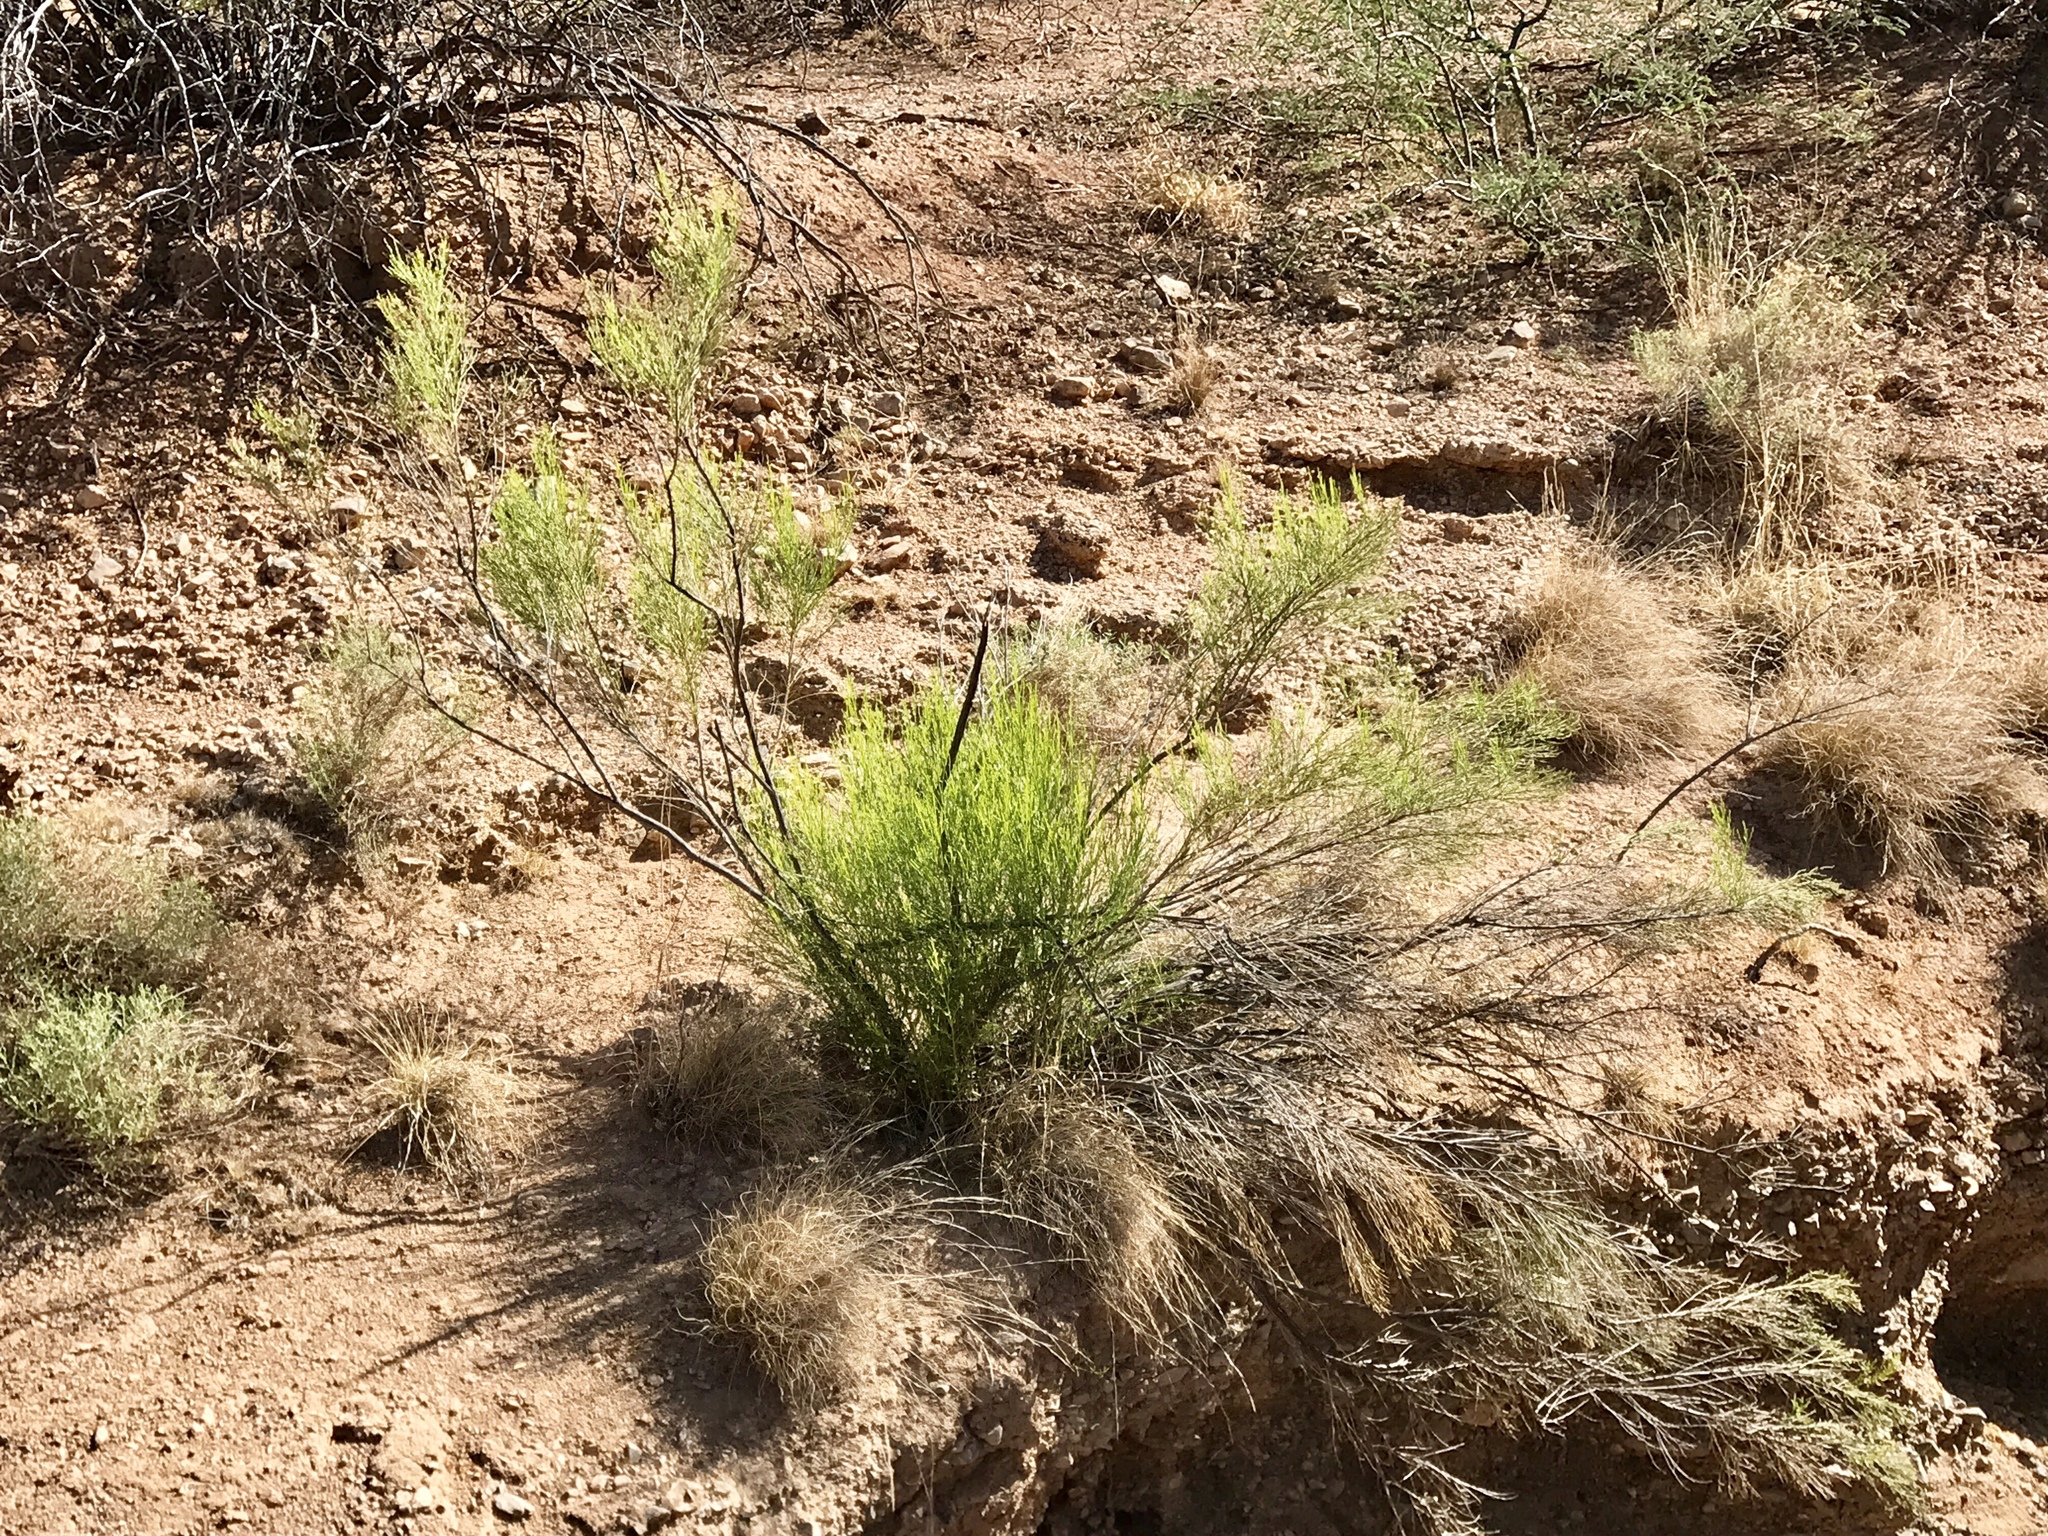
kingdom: Plantae
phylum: Tracheophyta
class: Magnoliopsida
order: Asterales
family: Asteraceae
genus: Baccharis
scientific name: Baccharis sarothroides
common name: Desert-broom
